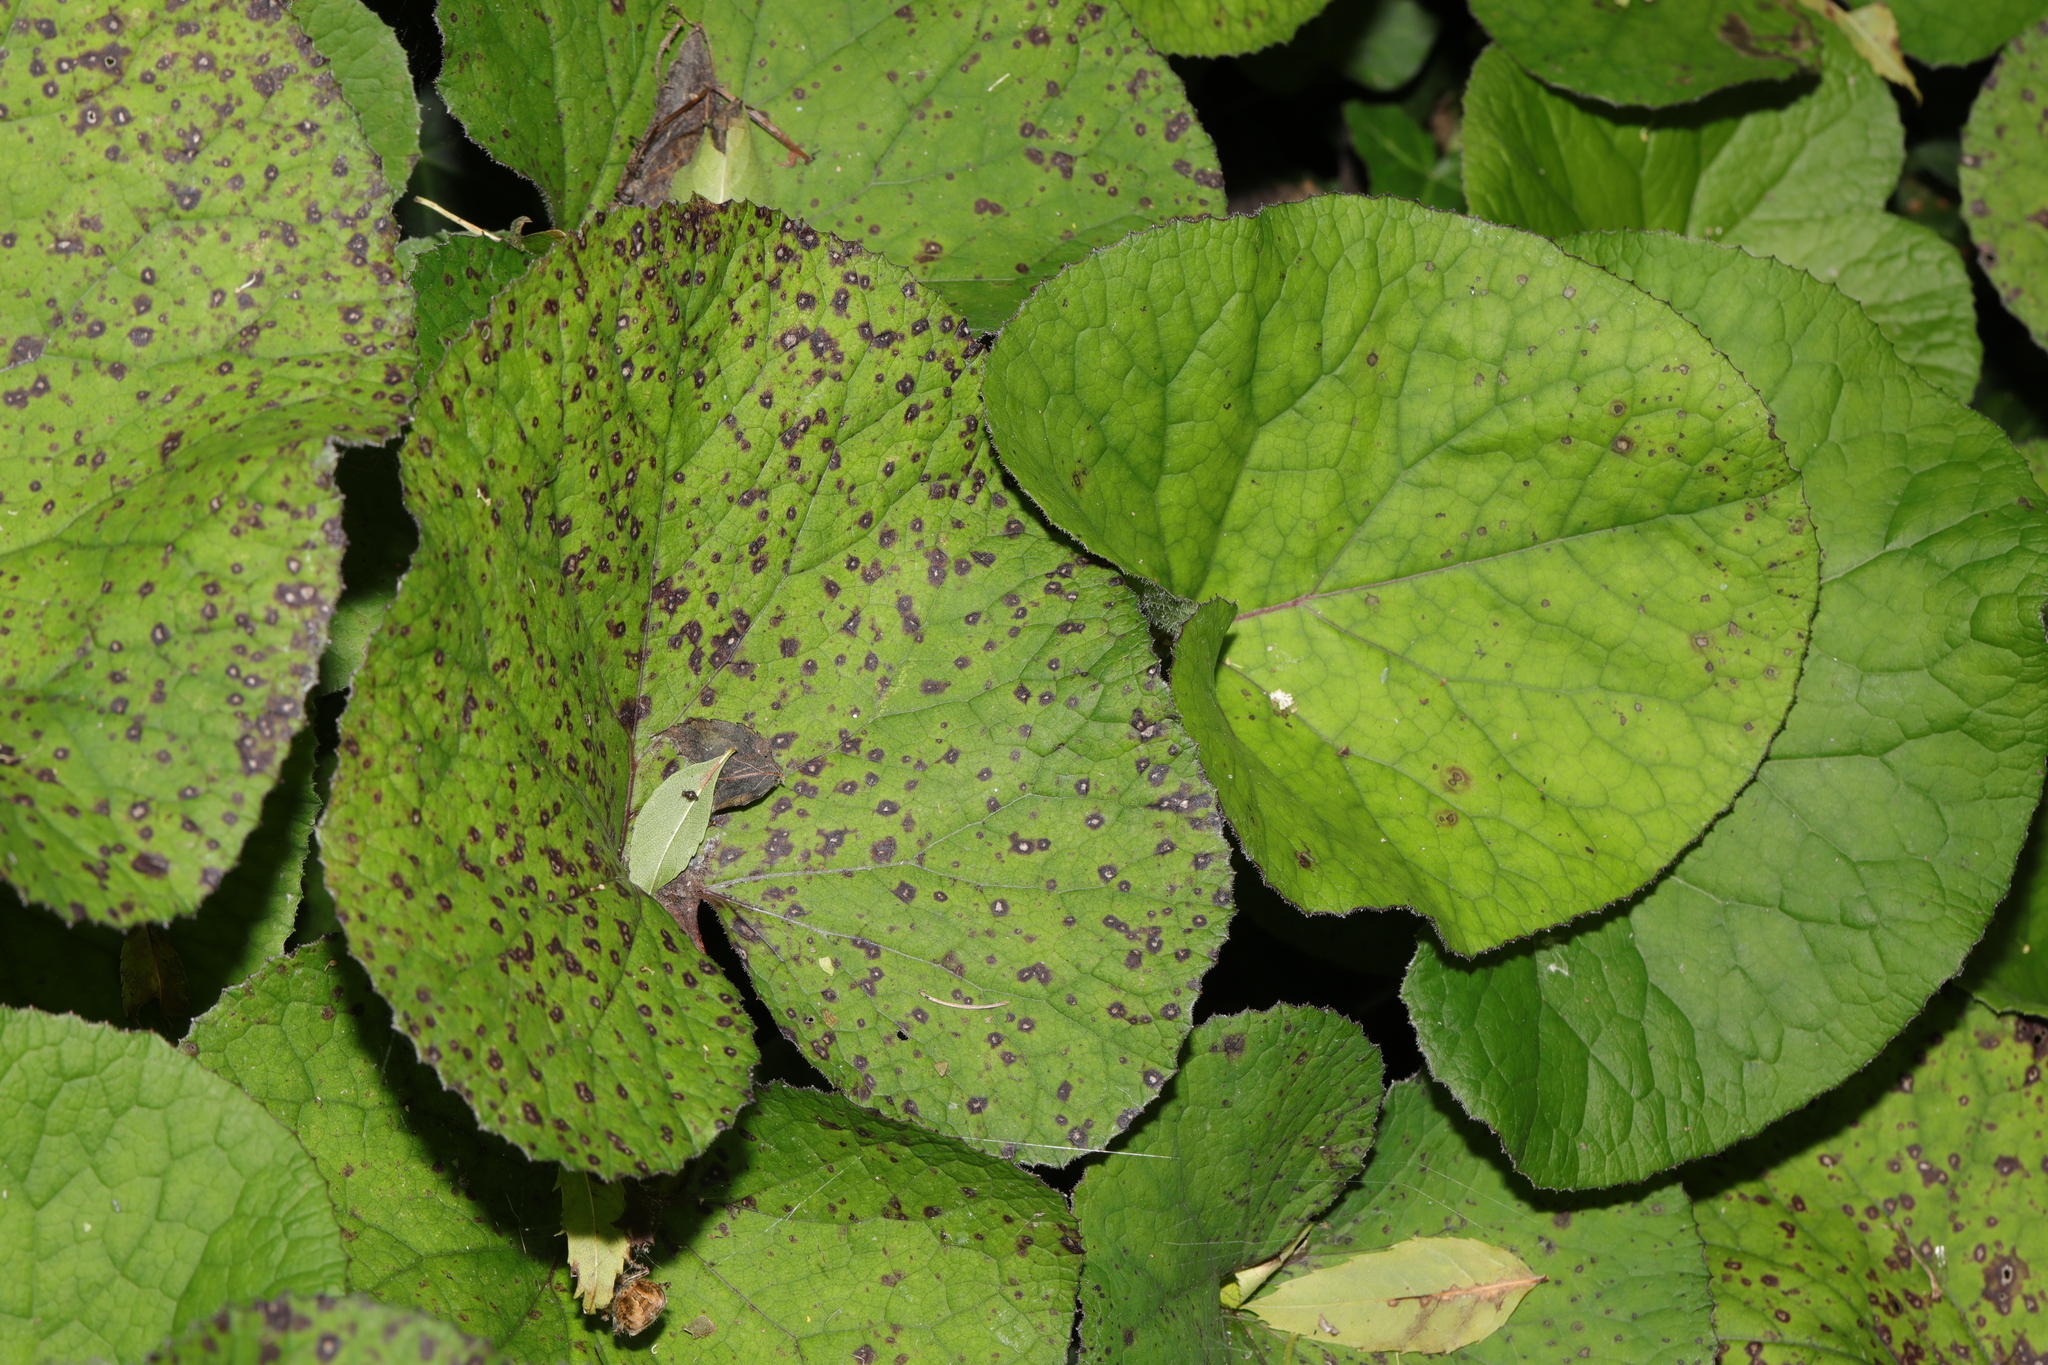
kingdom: Plantae
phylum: Tracheophyta
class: Magnoliopsida
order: Asterales
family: Asteraceae
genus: Petasites
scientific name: Petasites pyrenaicus
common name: Winter heliotrope
